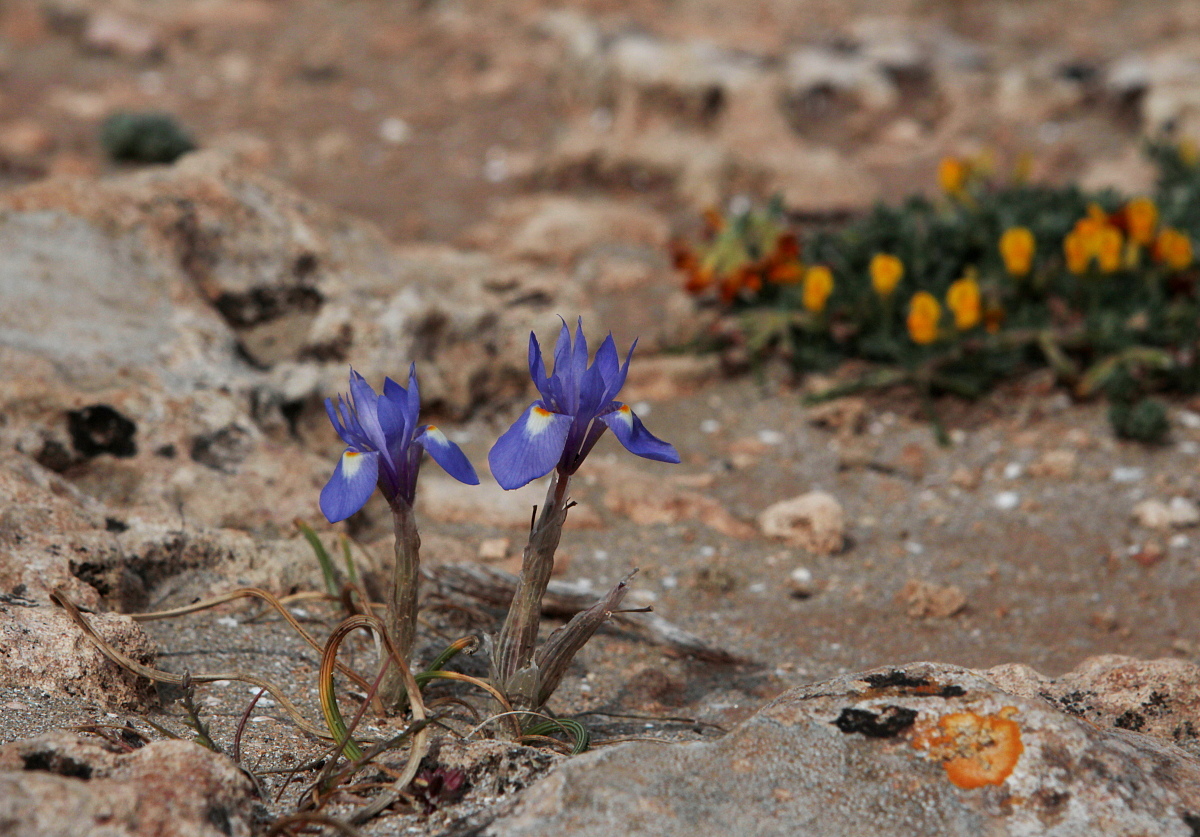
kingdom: Plantae
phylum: Tracheophyta
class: Liliopsida
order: Asparagales
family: Iridaceae
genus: Moraea
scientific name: Moraea sisyrinchium
